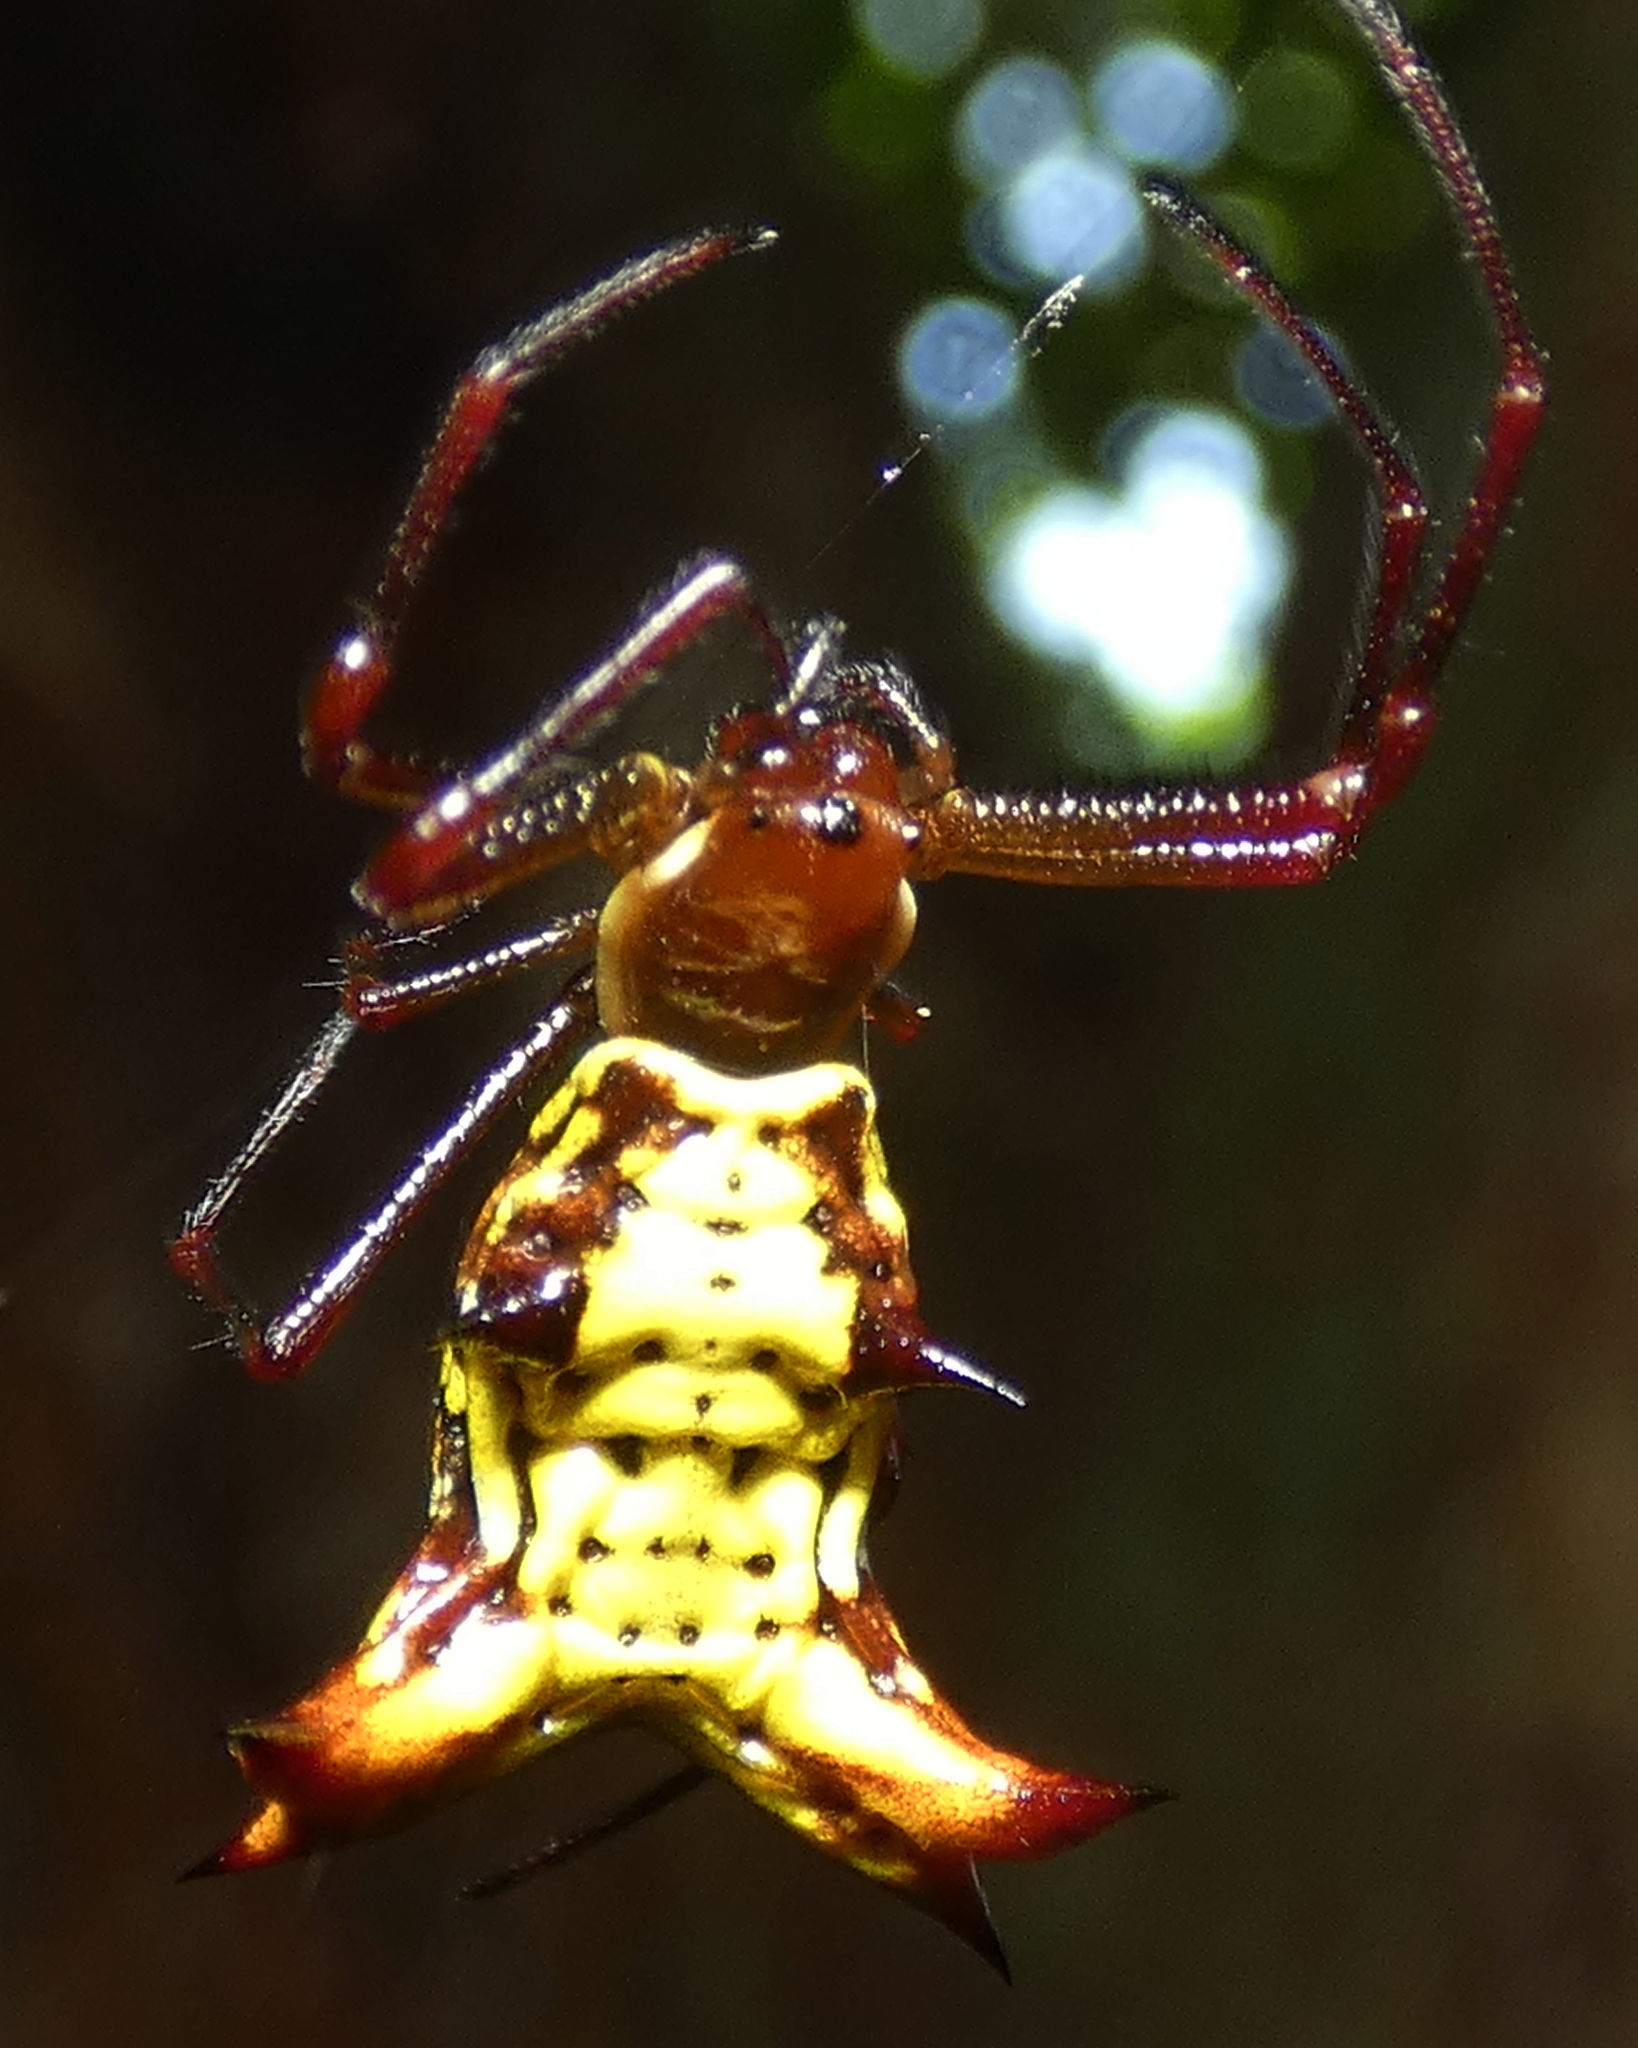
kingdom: Animalia
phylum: Arthropoda
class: Arachnida
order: Araneae
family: Araneidae
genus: Micrathena
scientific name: Micrathena fissispina
